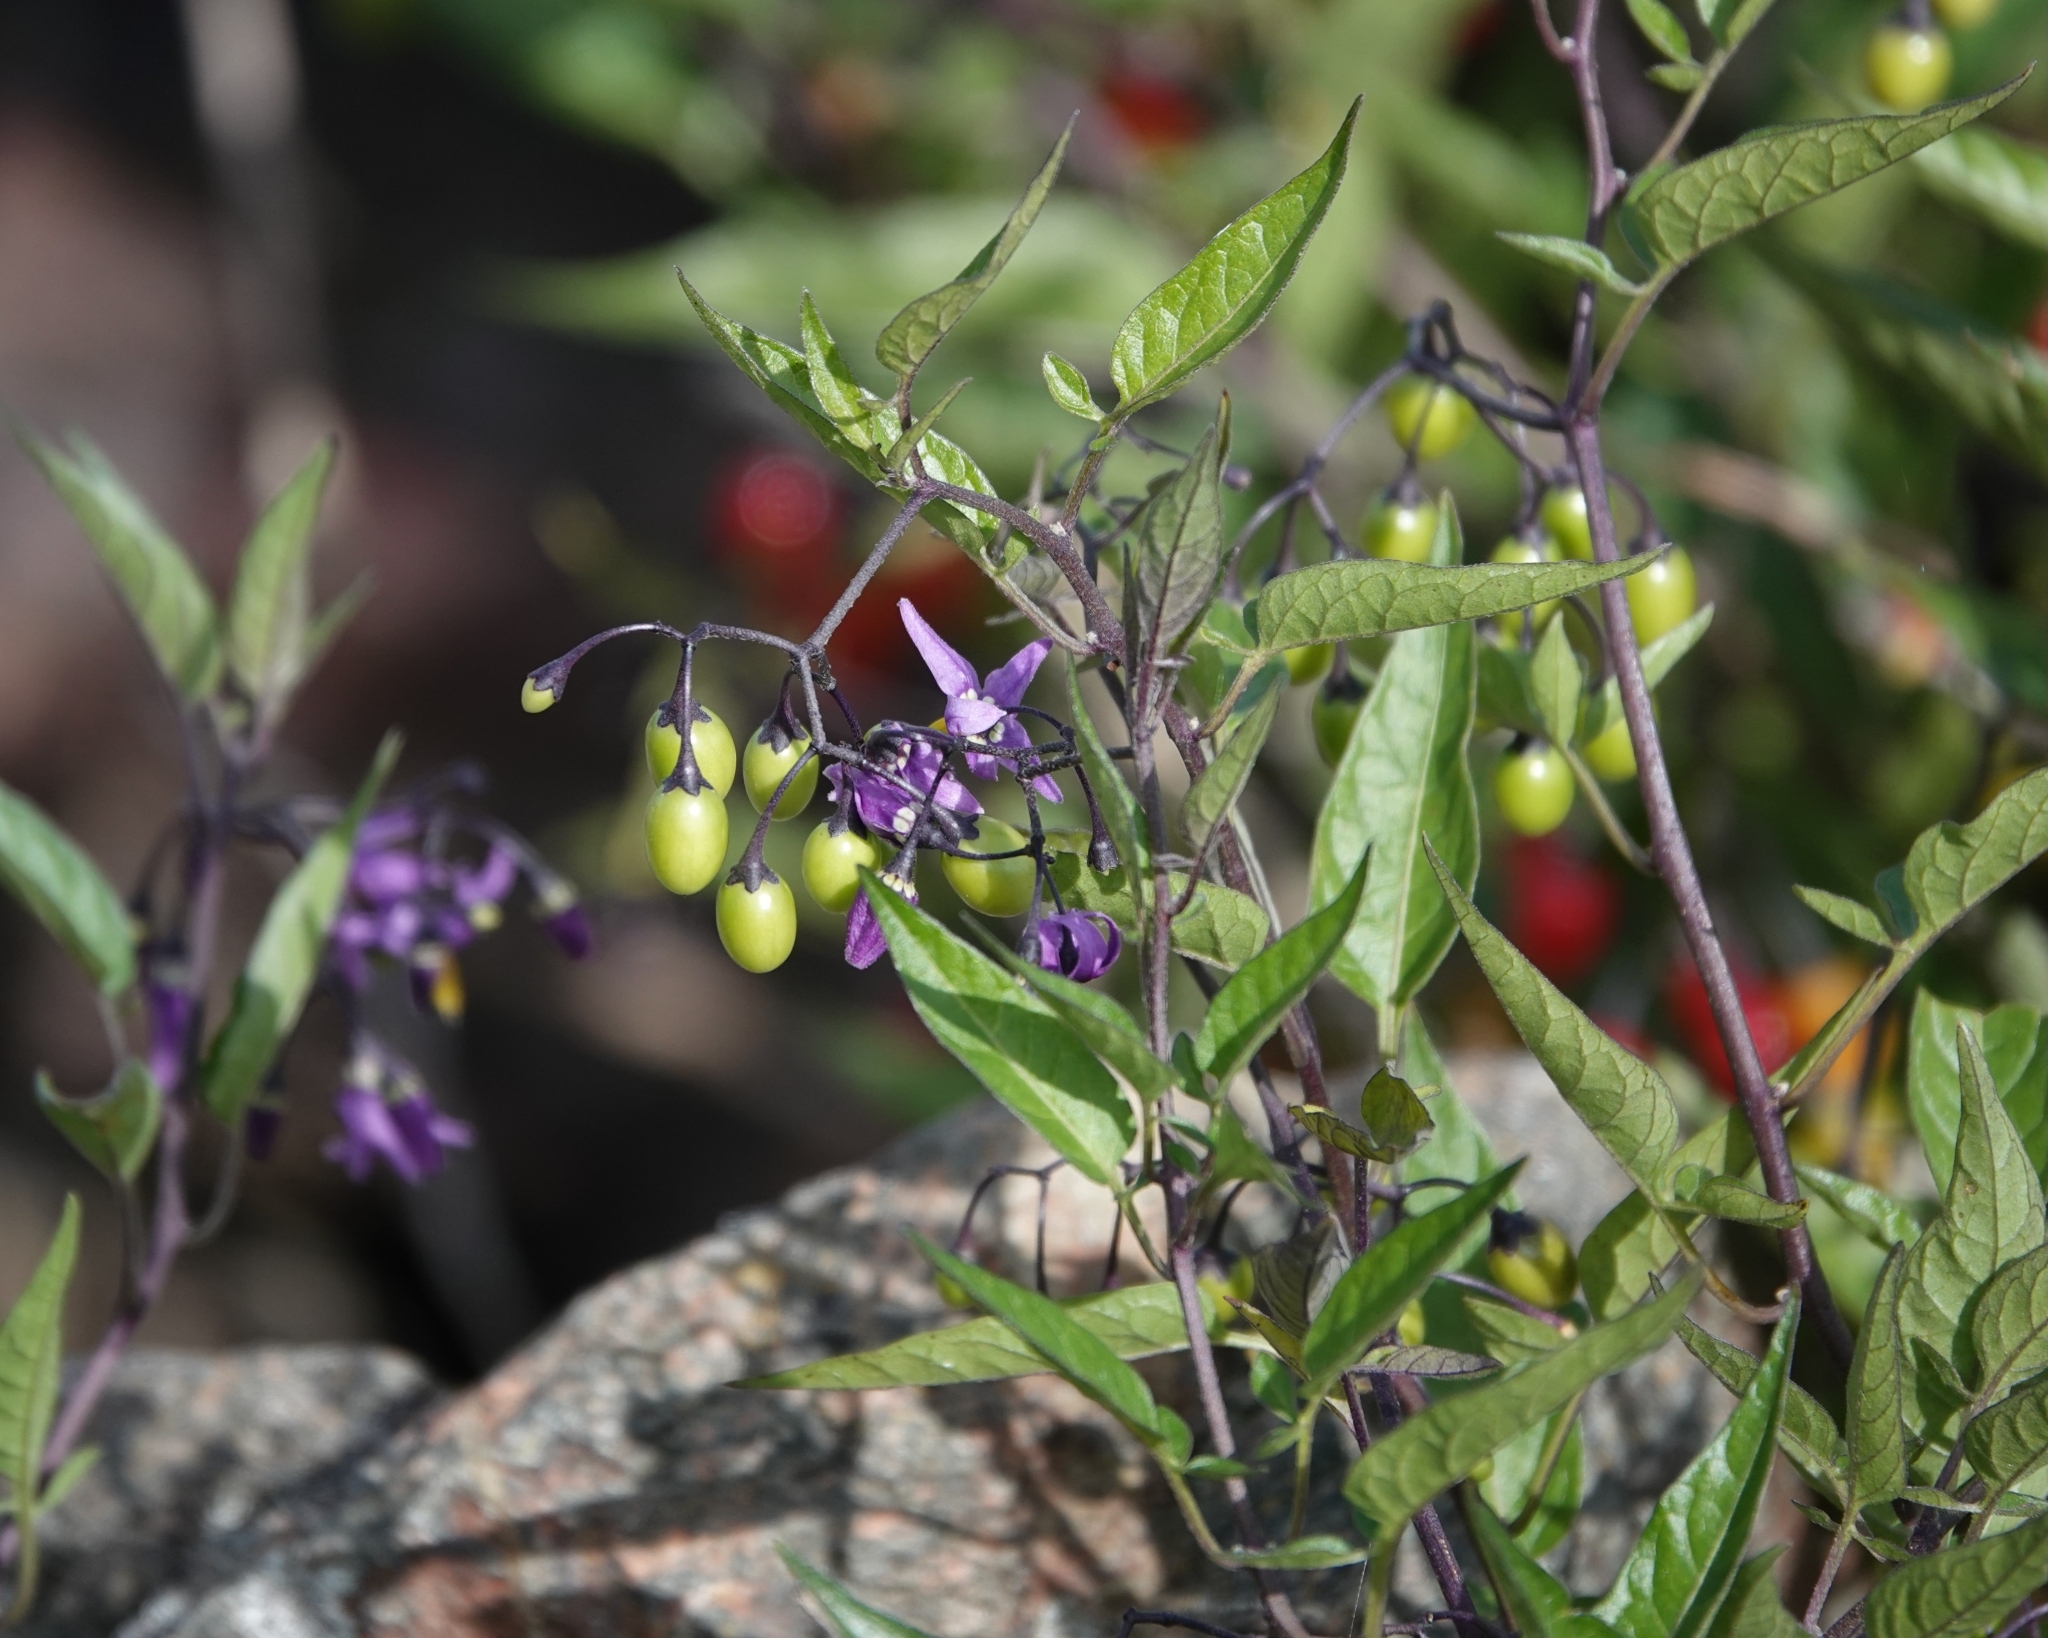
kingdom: Plantae
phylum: Tracheophyta
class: Magnoliopsida
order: Solanales
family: Solanaceae
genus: Solanum
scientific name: Solanum dulcamara
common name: Climbing nightshade
